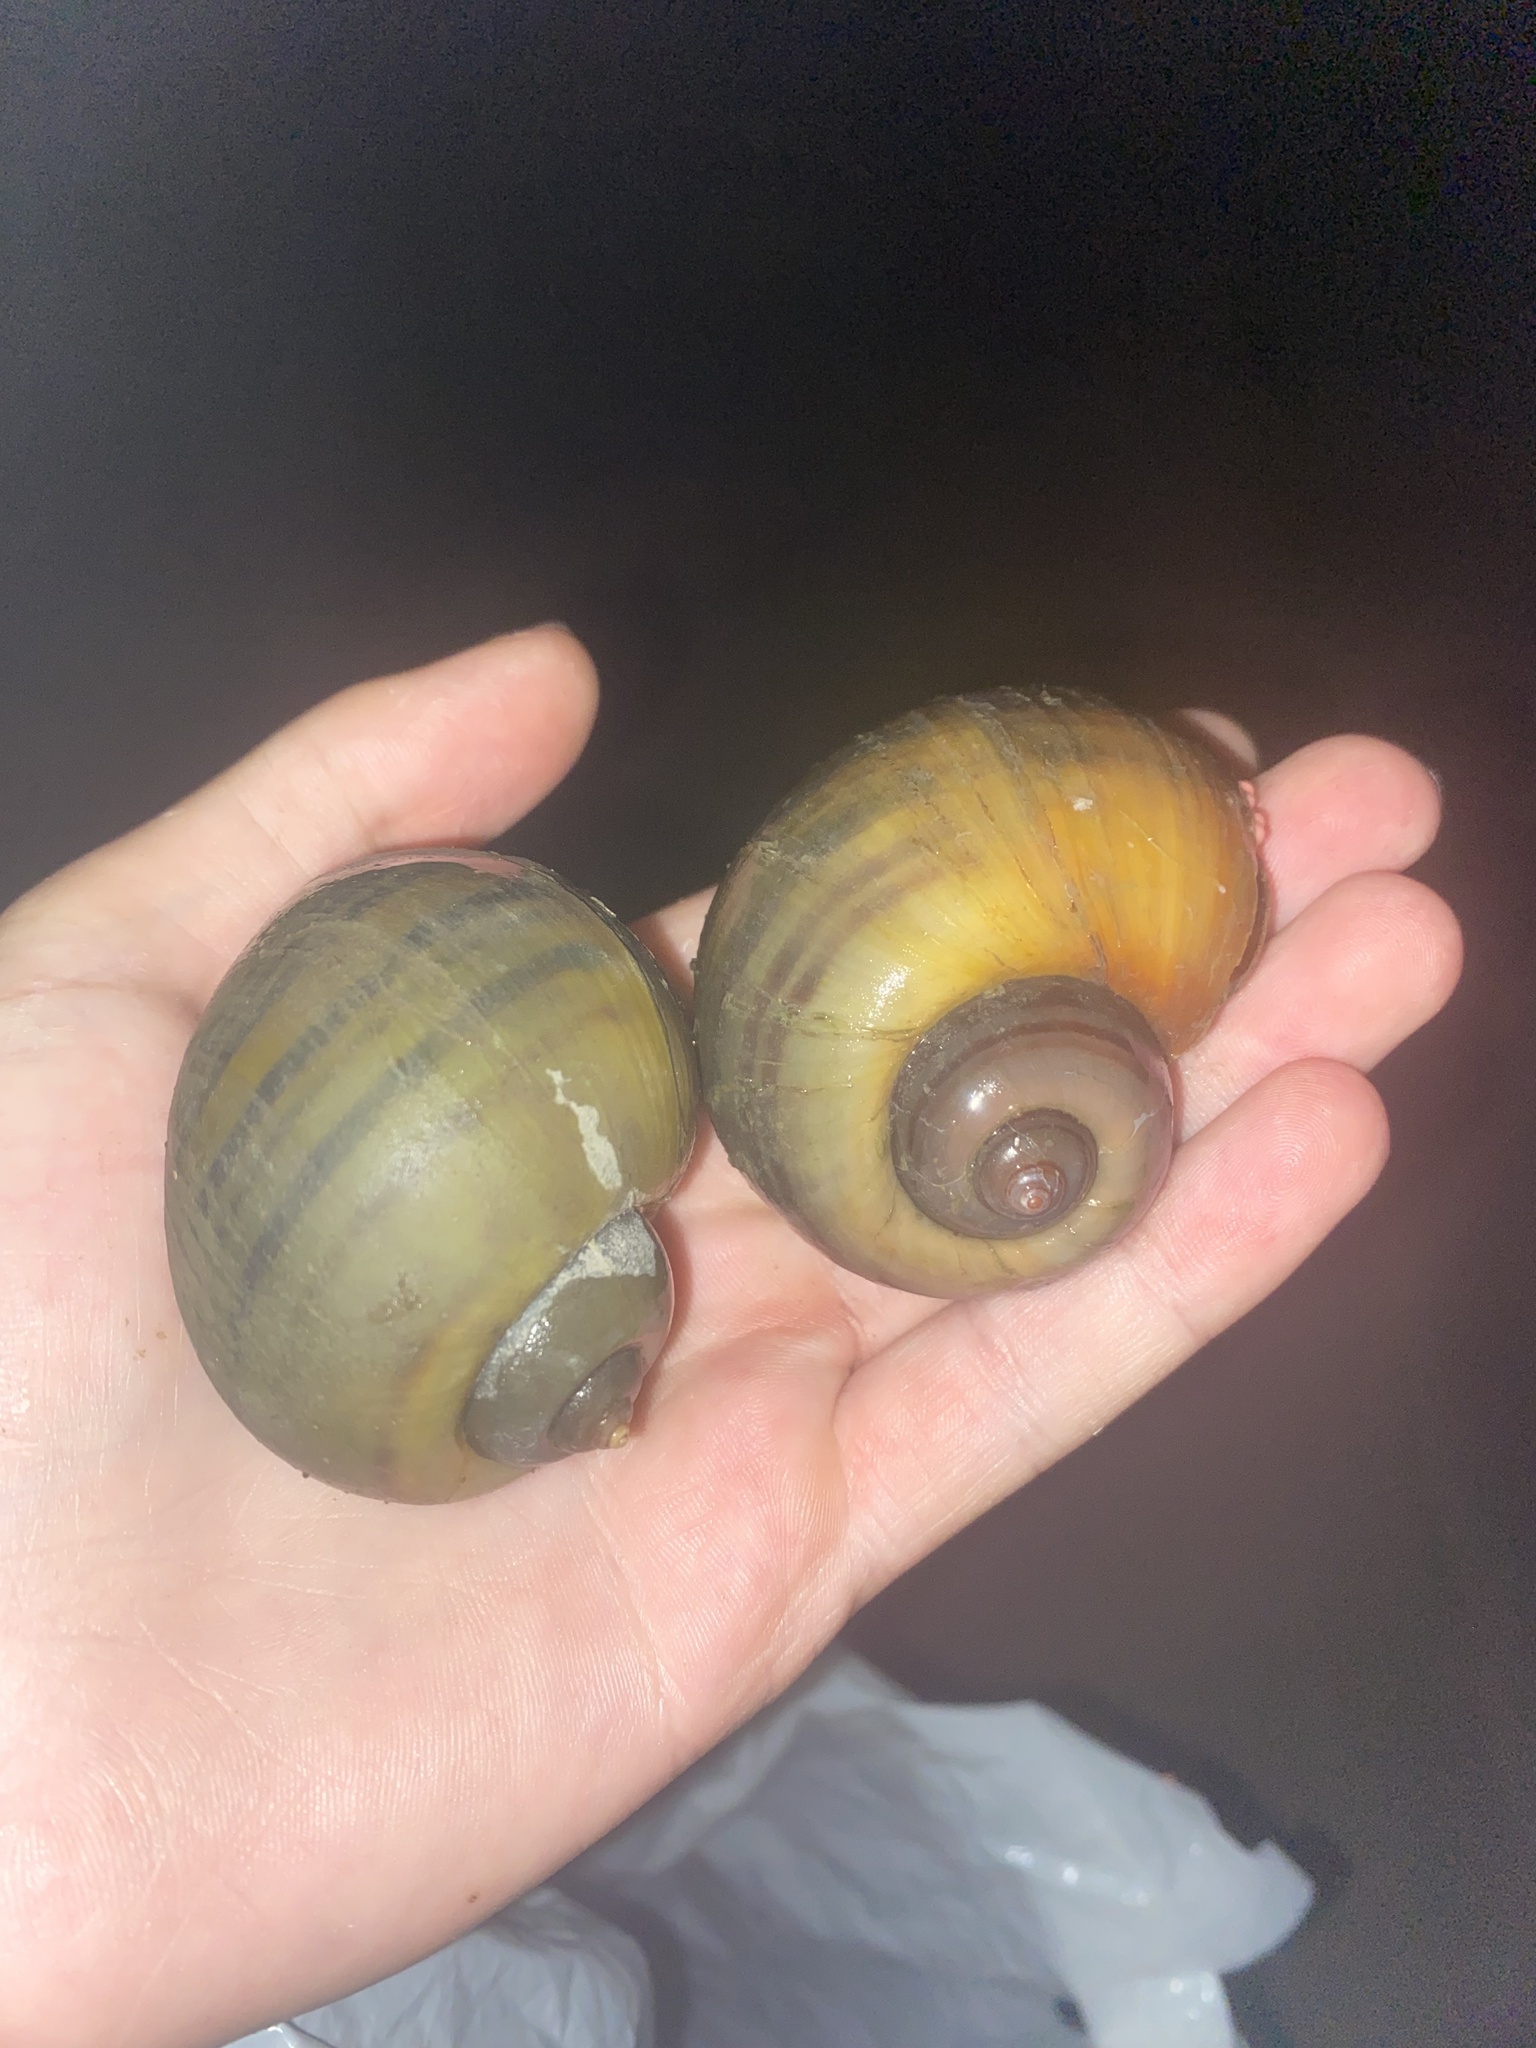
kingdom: Animalia
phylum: Mollusca
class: Gastropoda
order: Architaenioglossa
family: Ampullariidae
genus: Pomacea
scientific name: Pomacea maculata
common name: Giant applesnail
